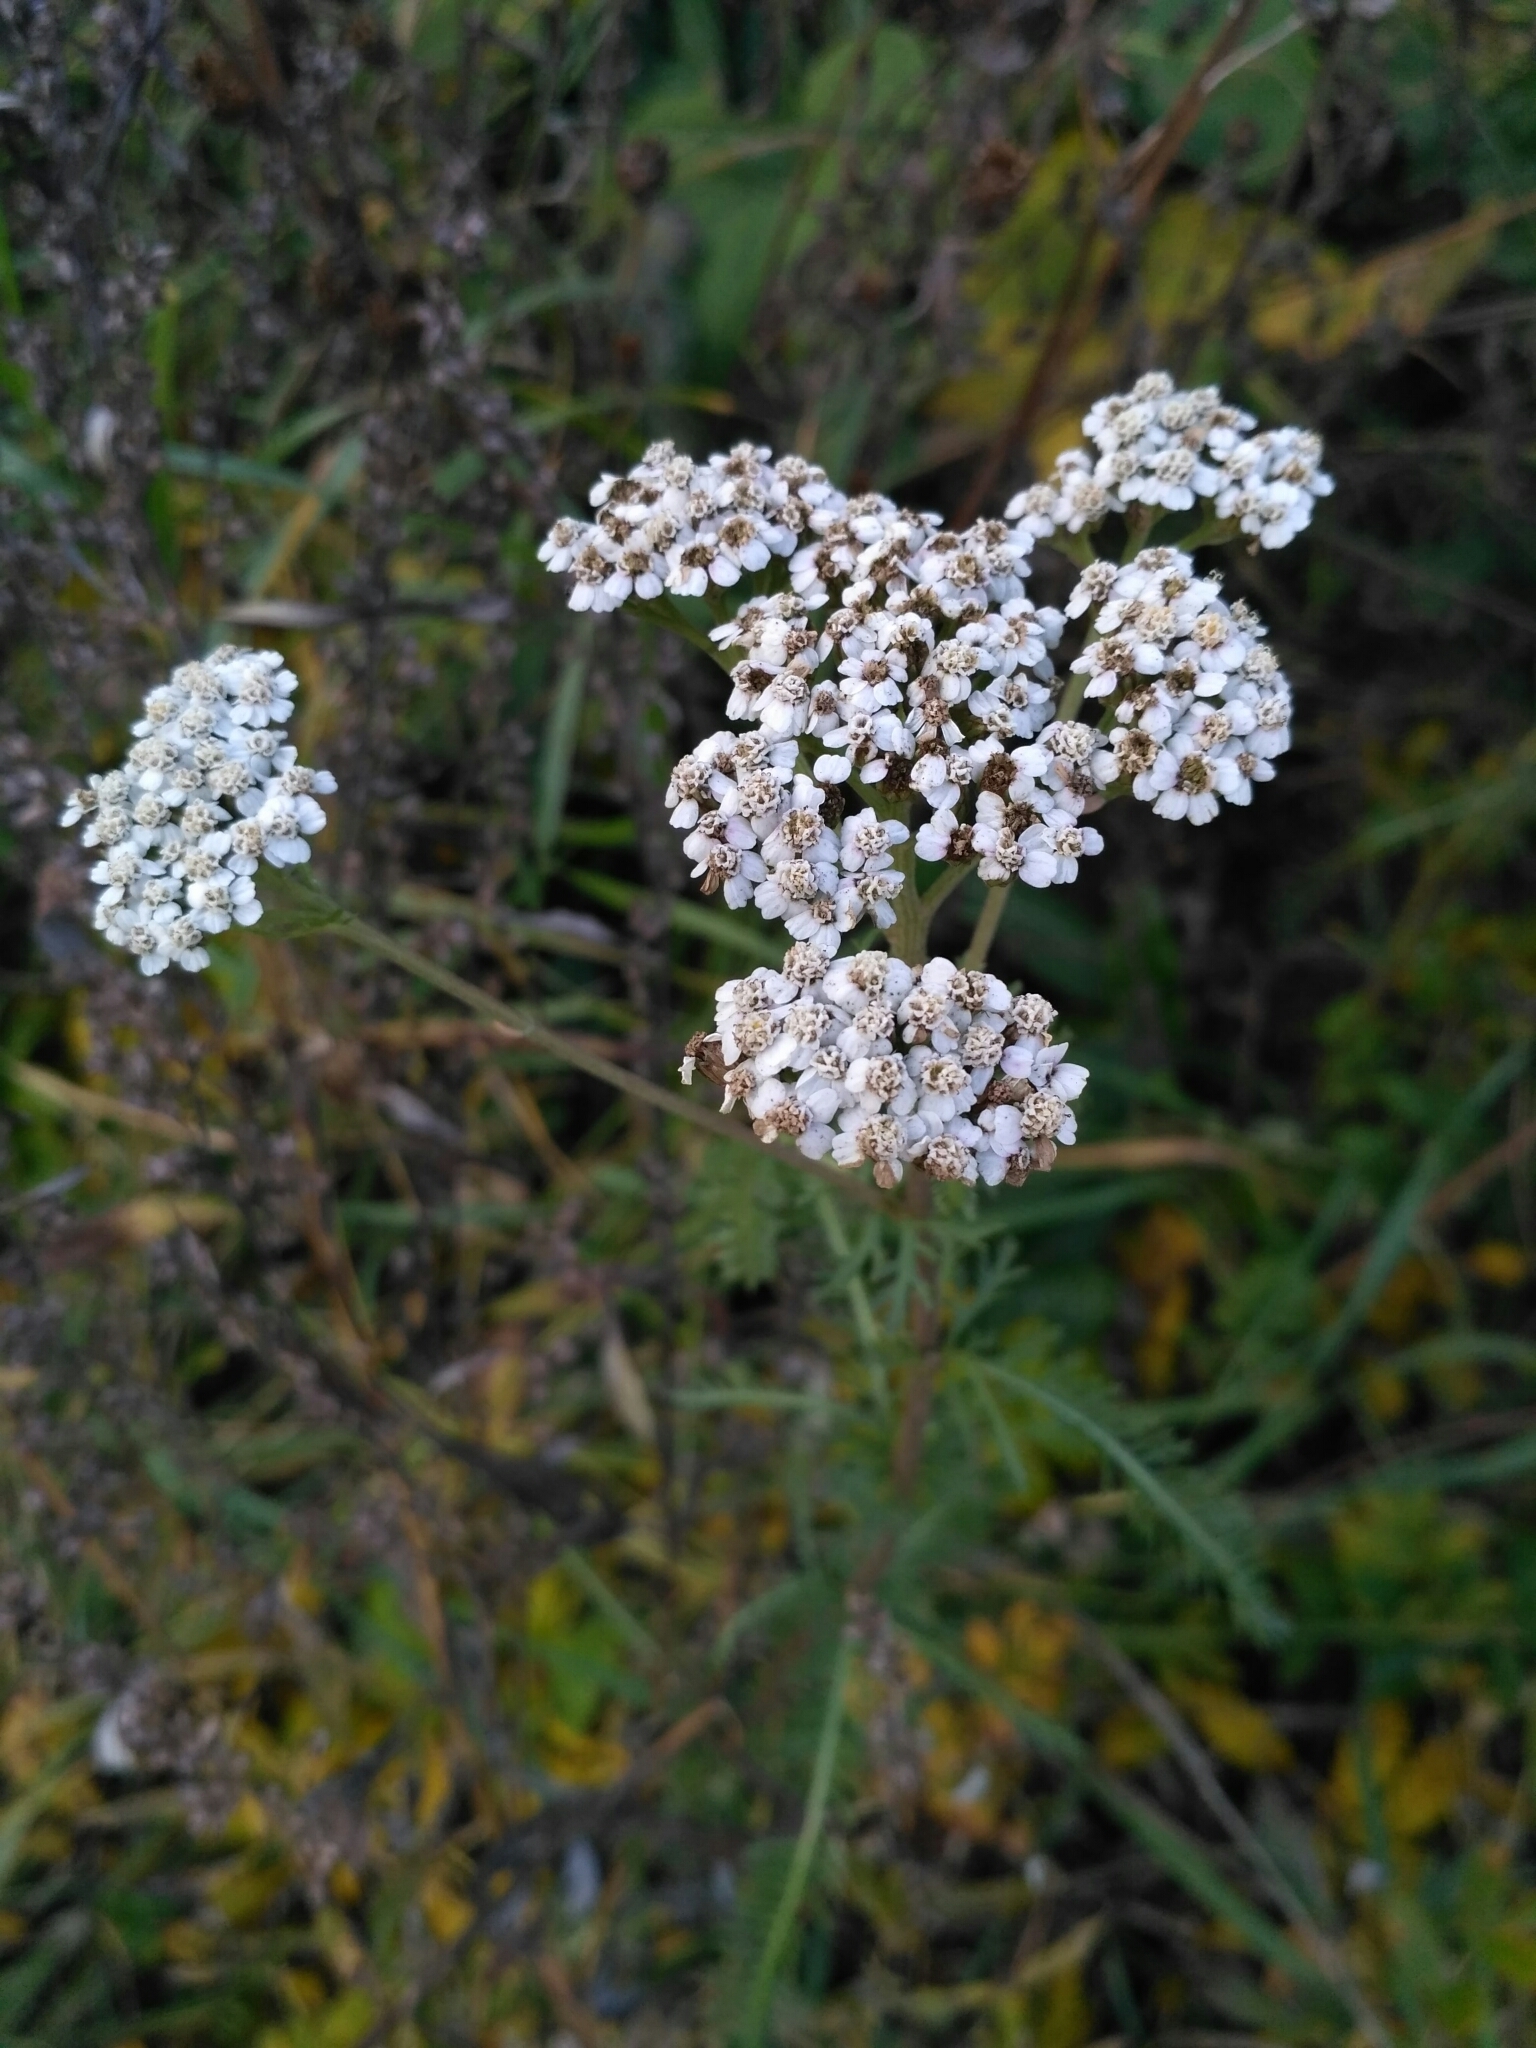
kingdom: Plantae
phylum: Tracheophyta
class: Magnoliopsida
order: Asterales
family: Asteraceae
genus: Achillea
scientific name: Achillea millefolium
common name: Yarrow
